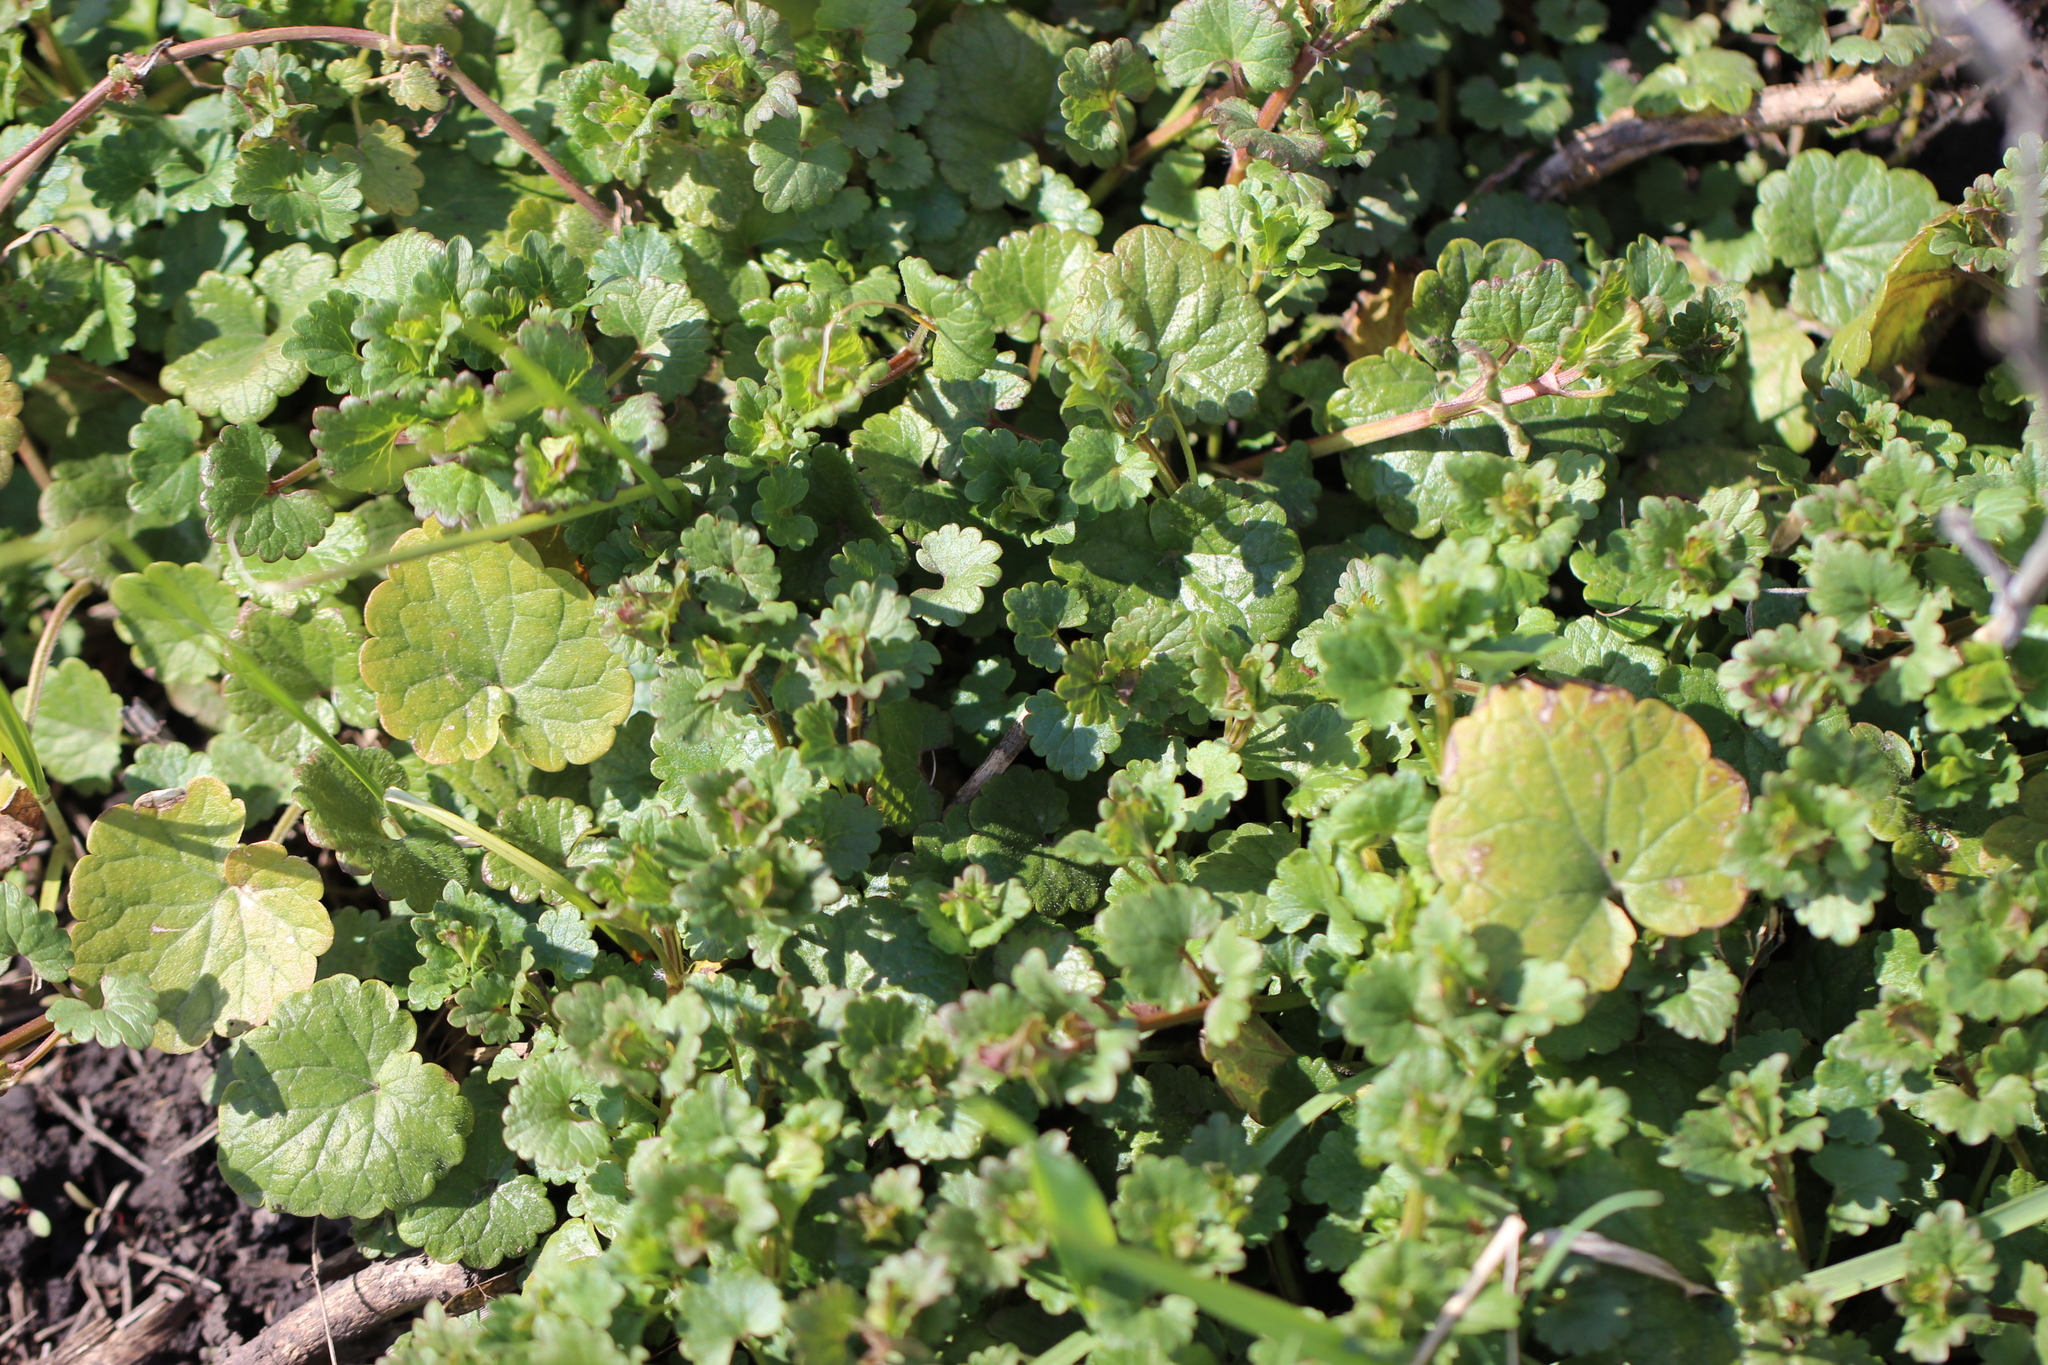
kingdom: Plantae
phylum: Tracheophyta
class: Magnoliopsida
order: Lamiales
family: Lamiaceae
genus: Glechoma
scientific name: Glechoma hederacea
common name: Ground ivy
